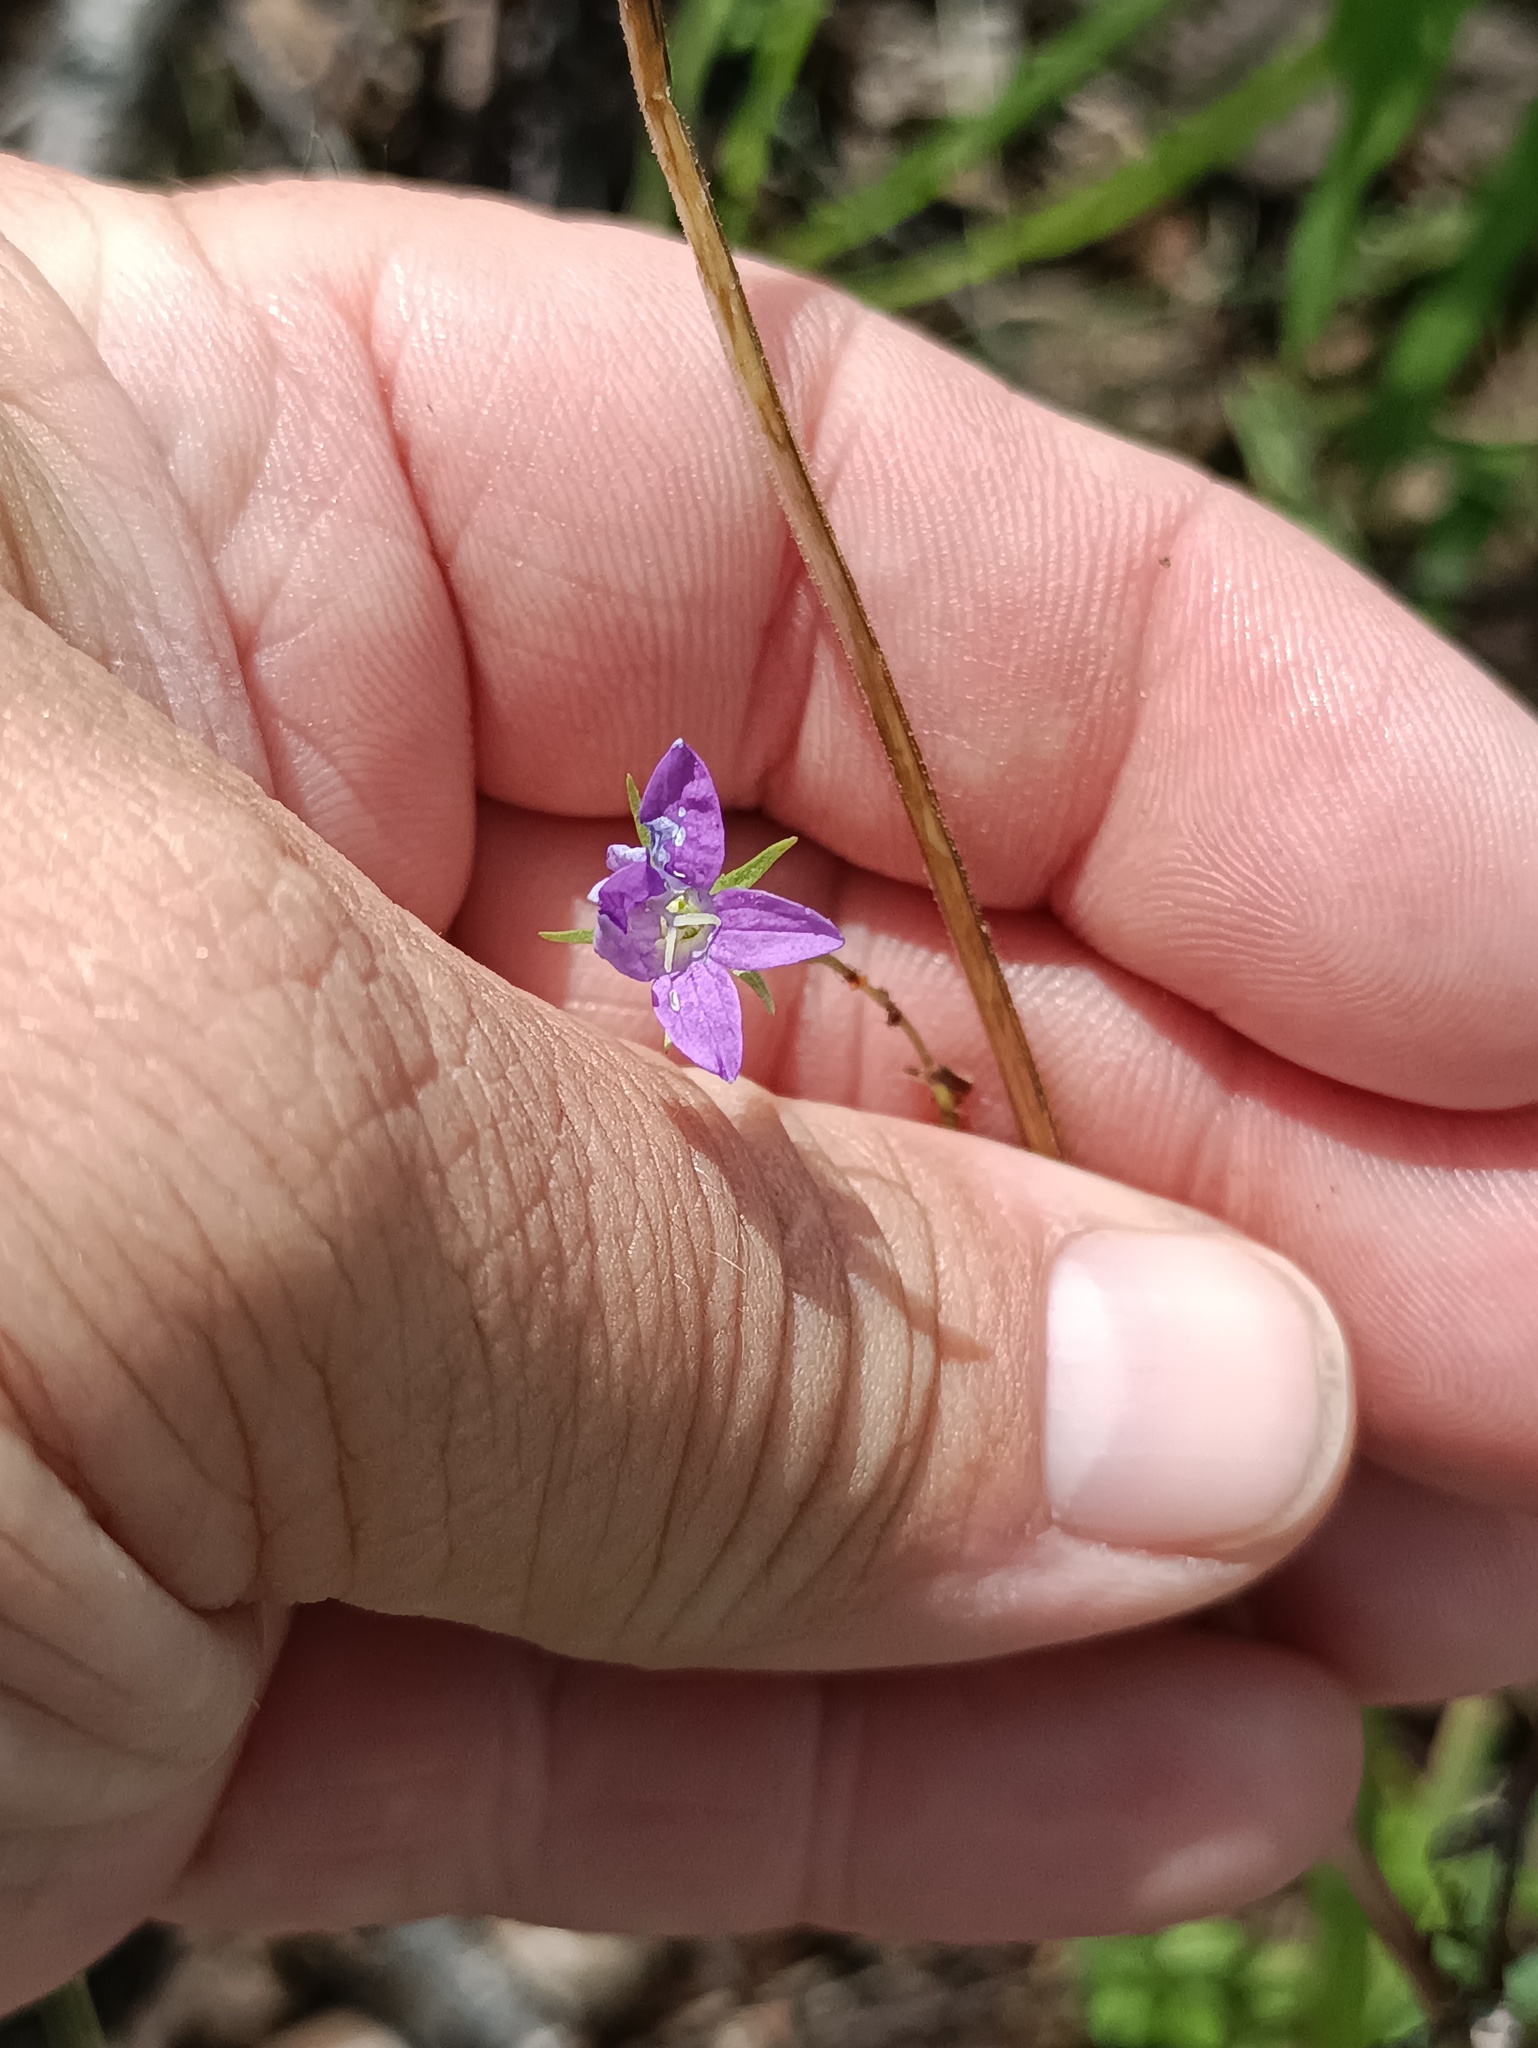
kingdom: Plantae
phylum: Tracheophyta
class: Magnoliopsida
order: Asterales
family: Campanulaceae
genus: Campanula
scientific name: Campanula patula
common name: Spreading bellflower
